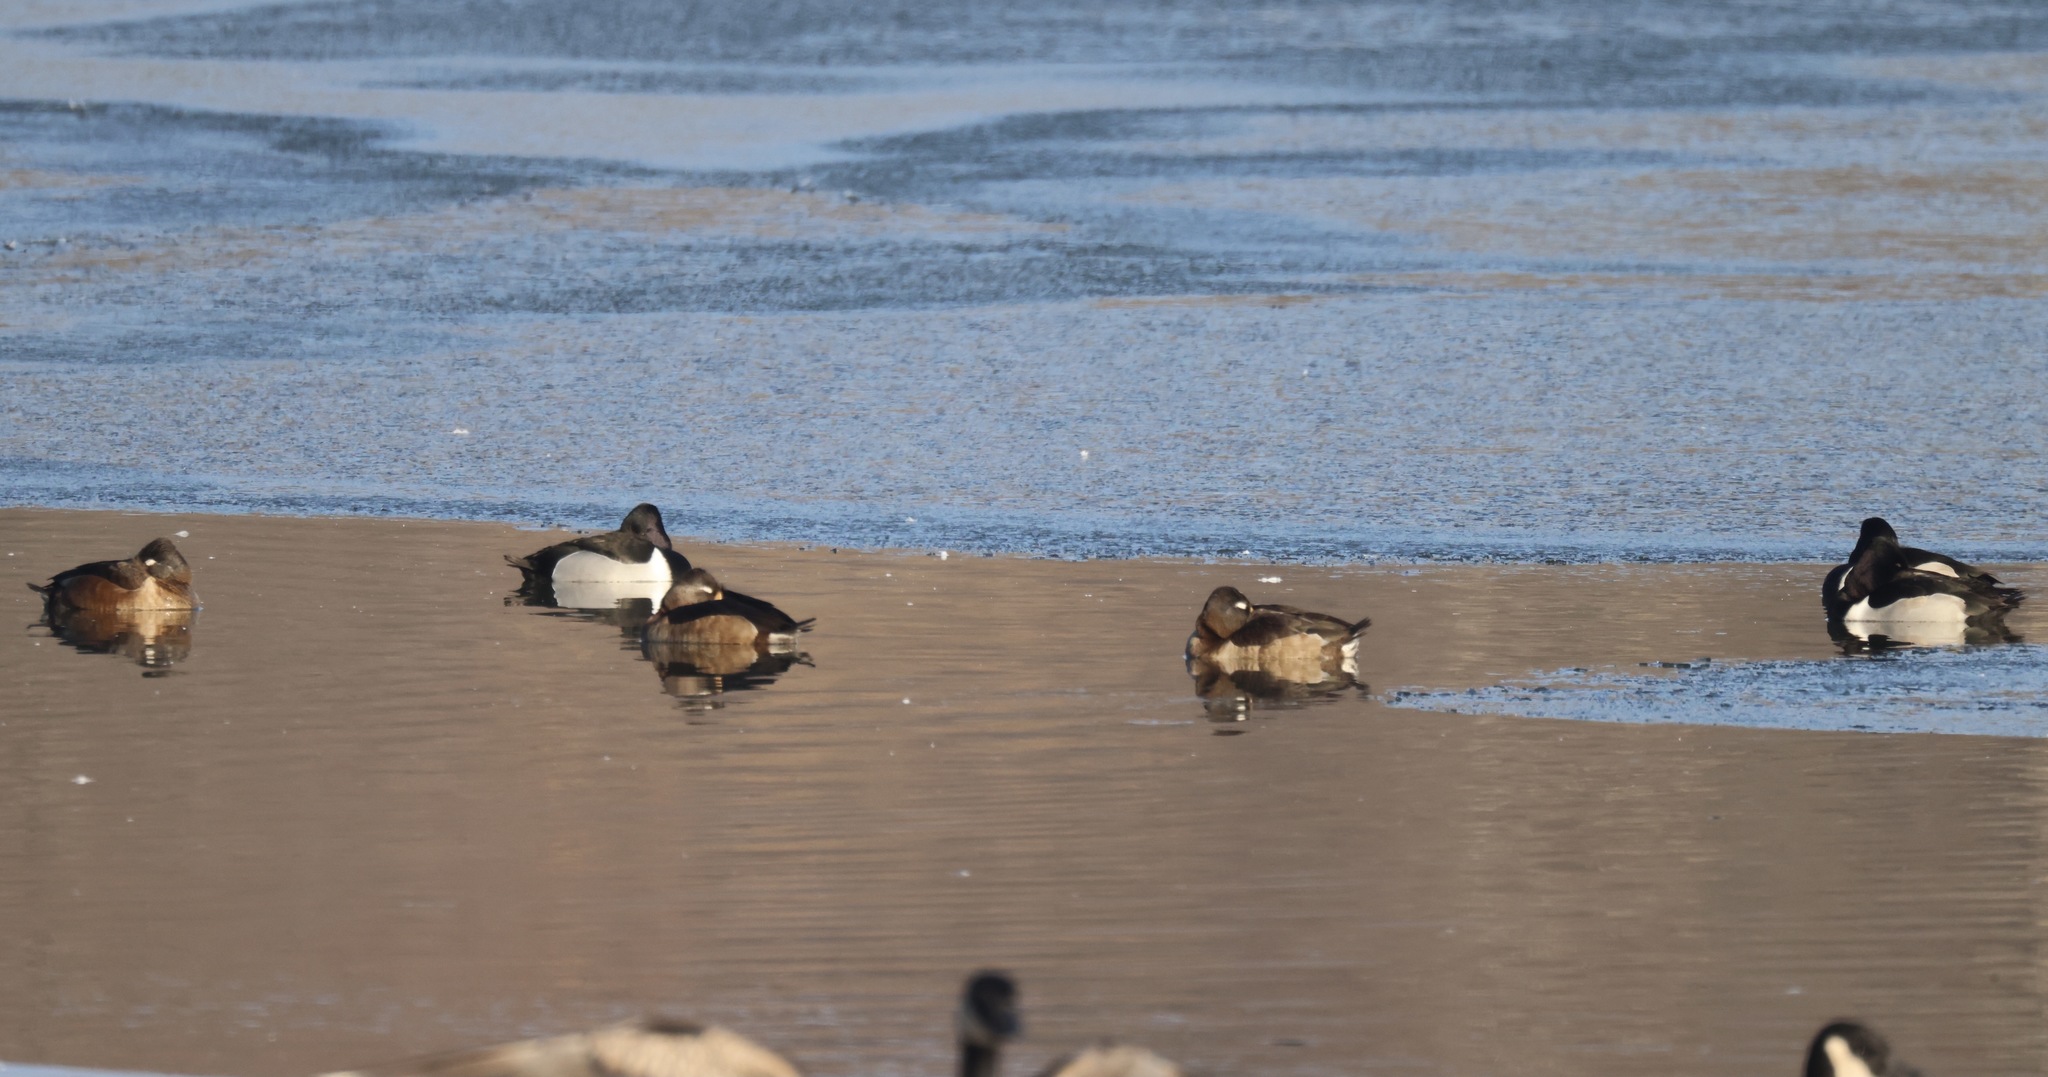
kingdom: Animalia
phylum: Chordata
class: Aves
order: Anseriformes
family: Anatidae
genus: Aythya
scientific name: Aythya collaris
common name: Ring-necked duck
